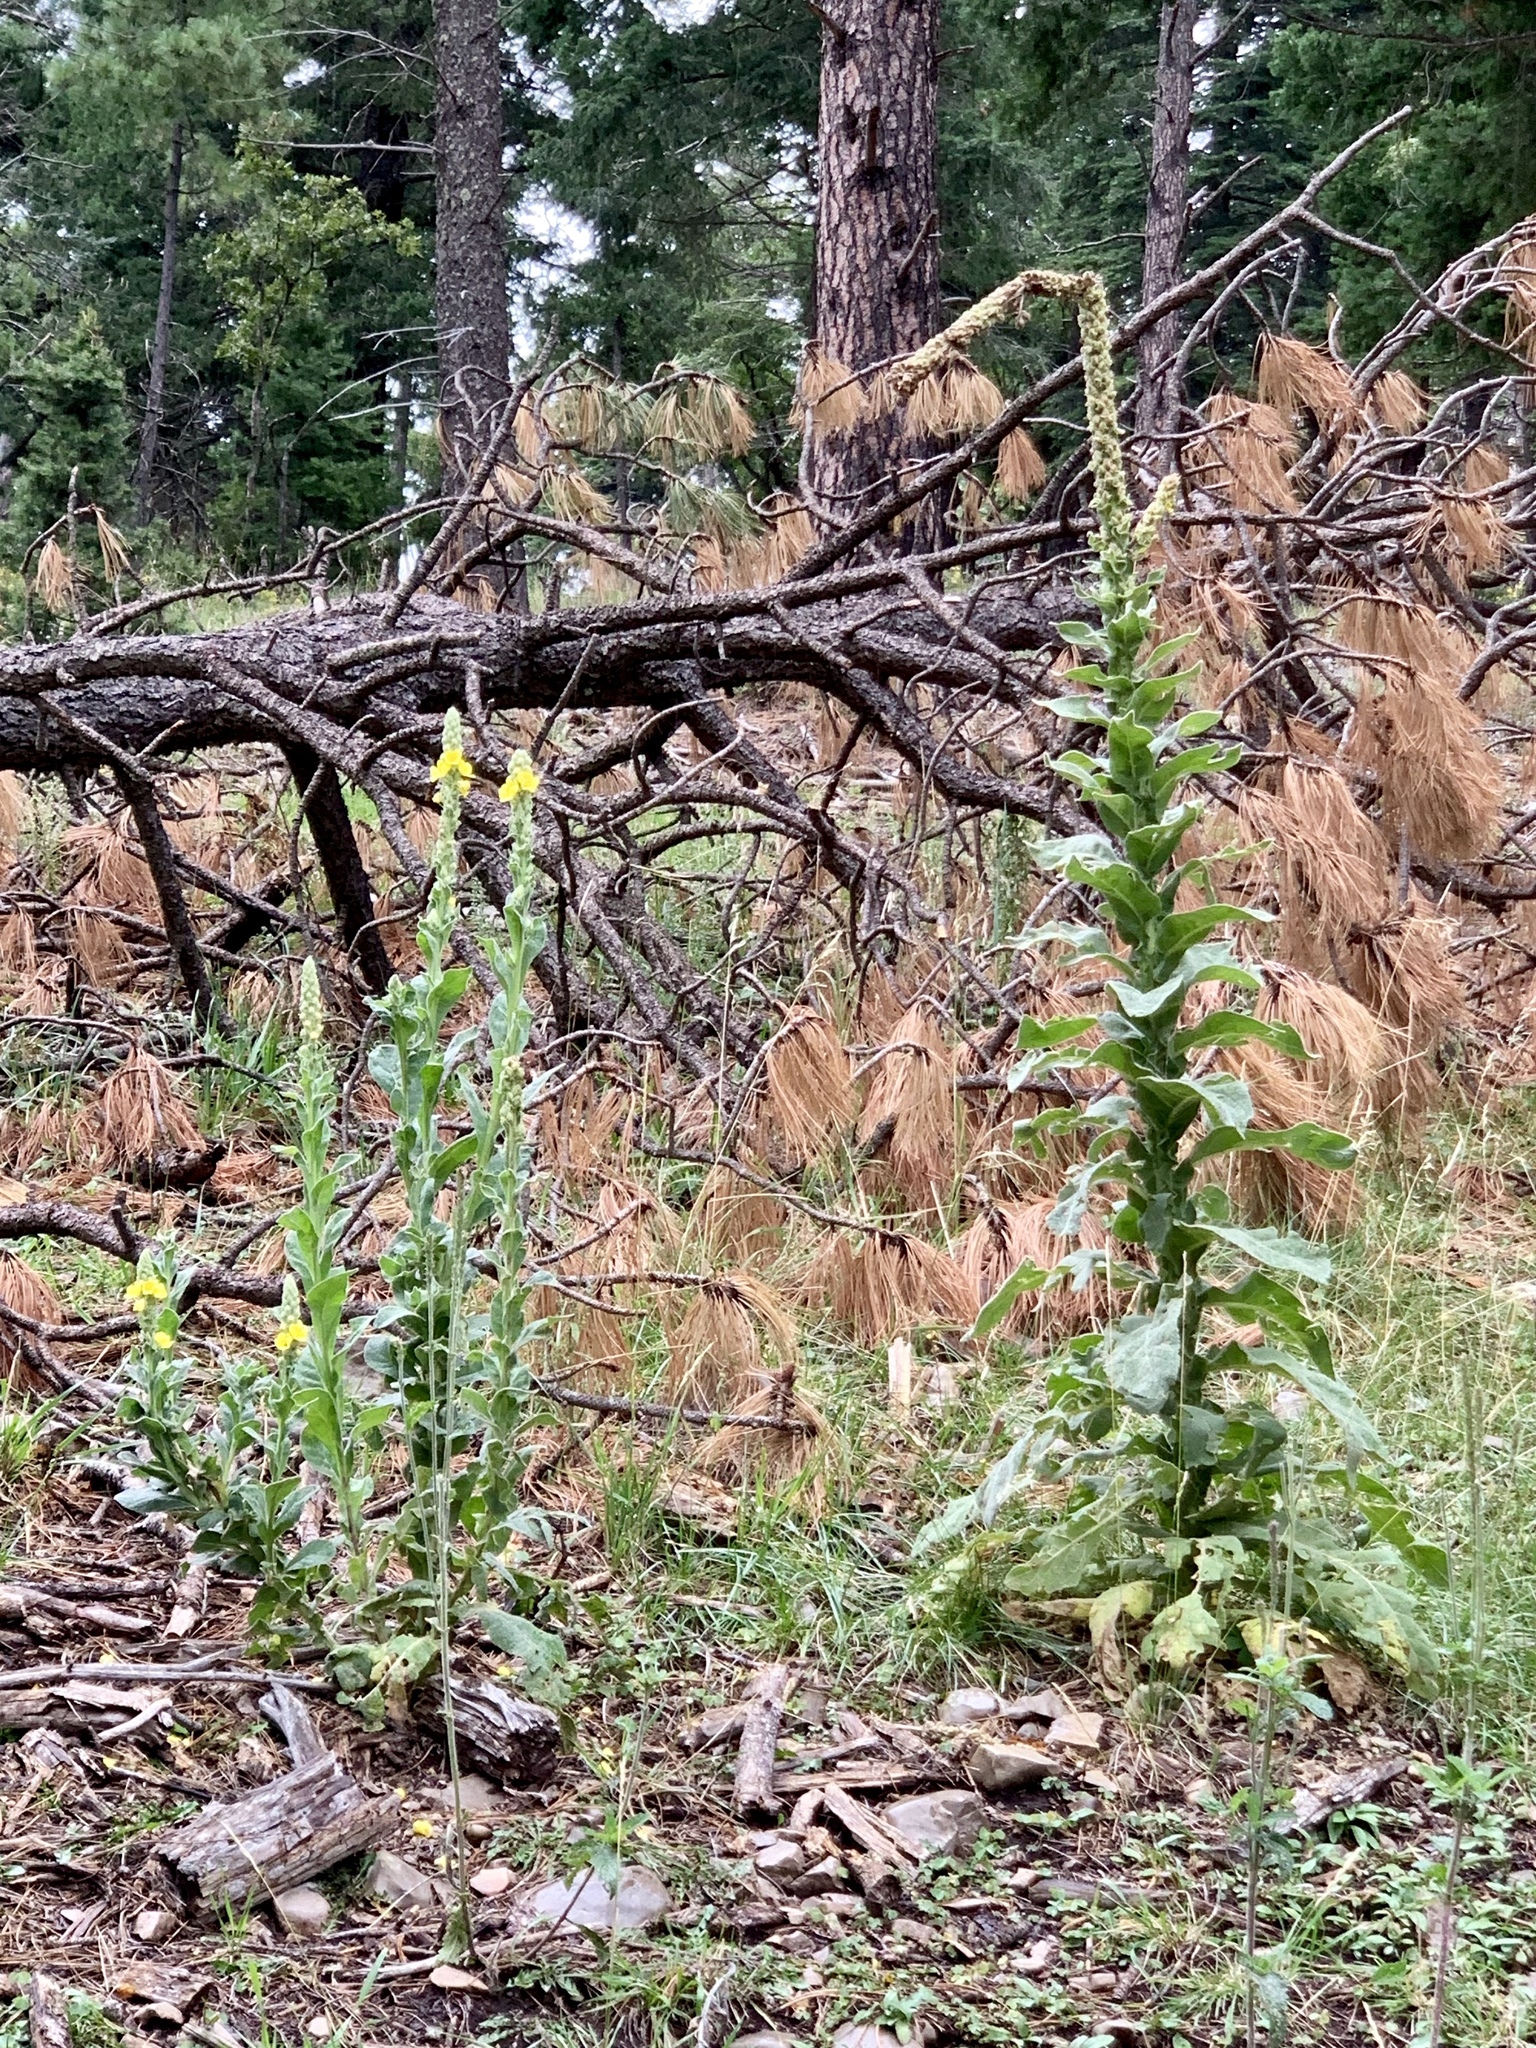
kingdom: Plantae
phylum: Tracheophyta
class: Magnoliopsida
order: Lamiales
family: Scrophulariaceae
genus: Verbascum
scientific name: Verbascum thapsus
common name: Common mullein
